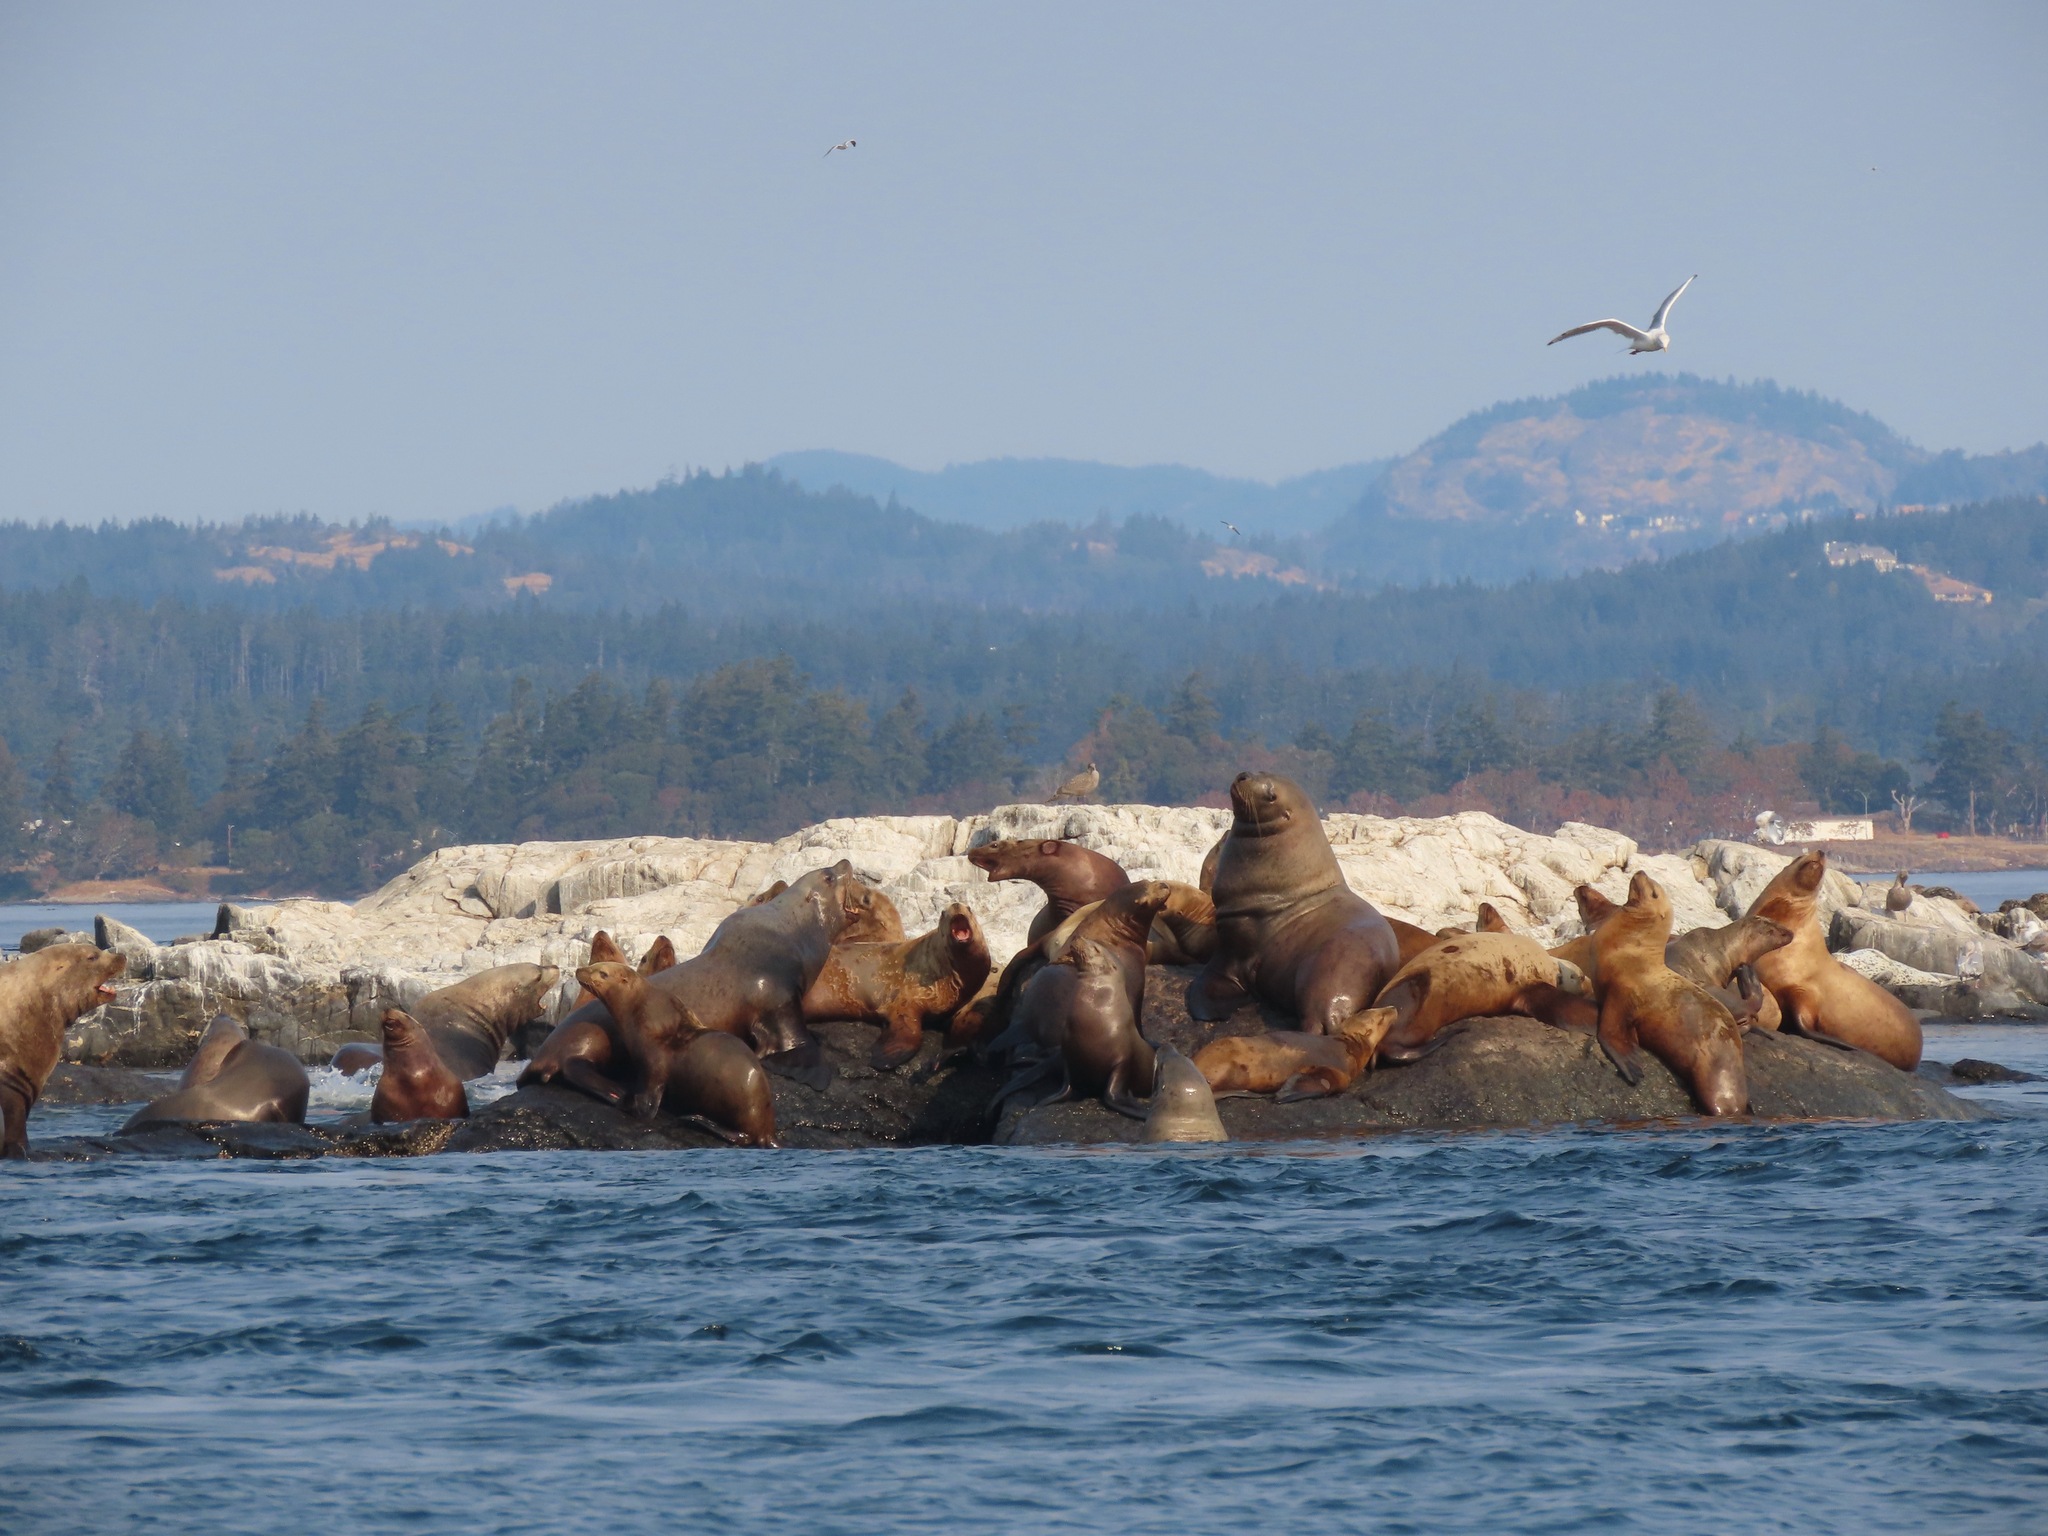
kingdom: Animalia
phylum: Chordata
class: Mammalia
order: Carnivora
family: Otariidae
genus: Eumetopias
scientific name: Eumetopias jubatus
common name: Steller sea lion
